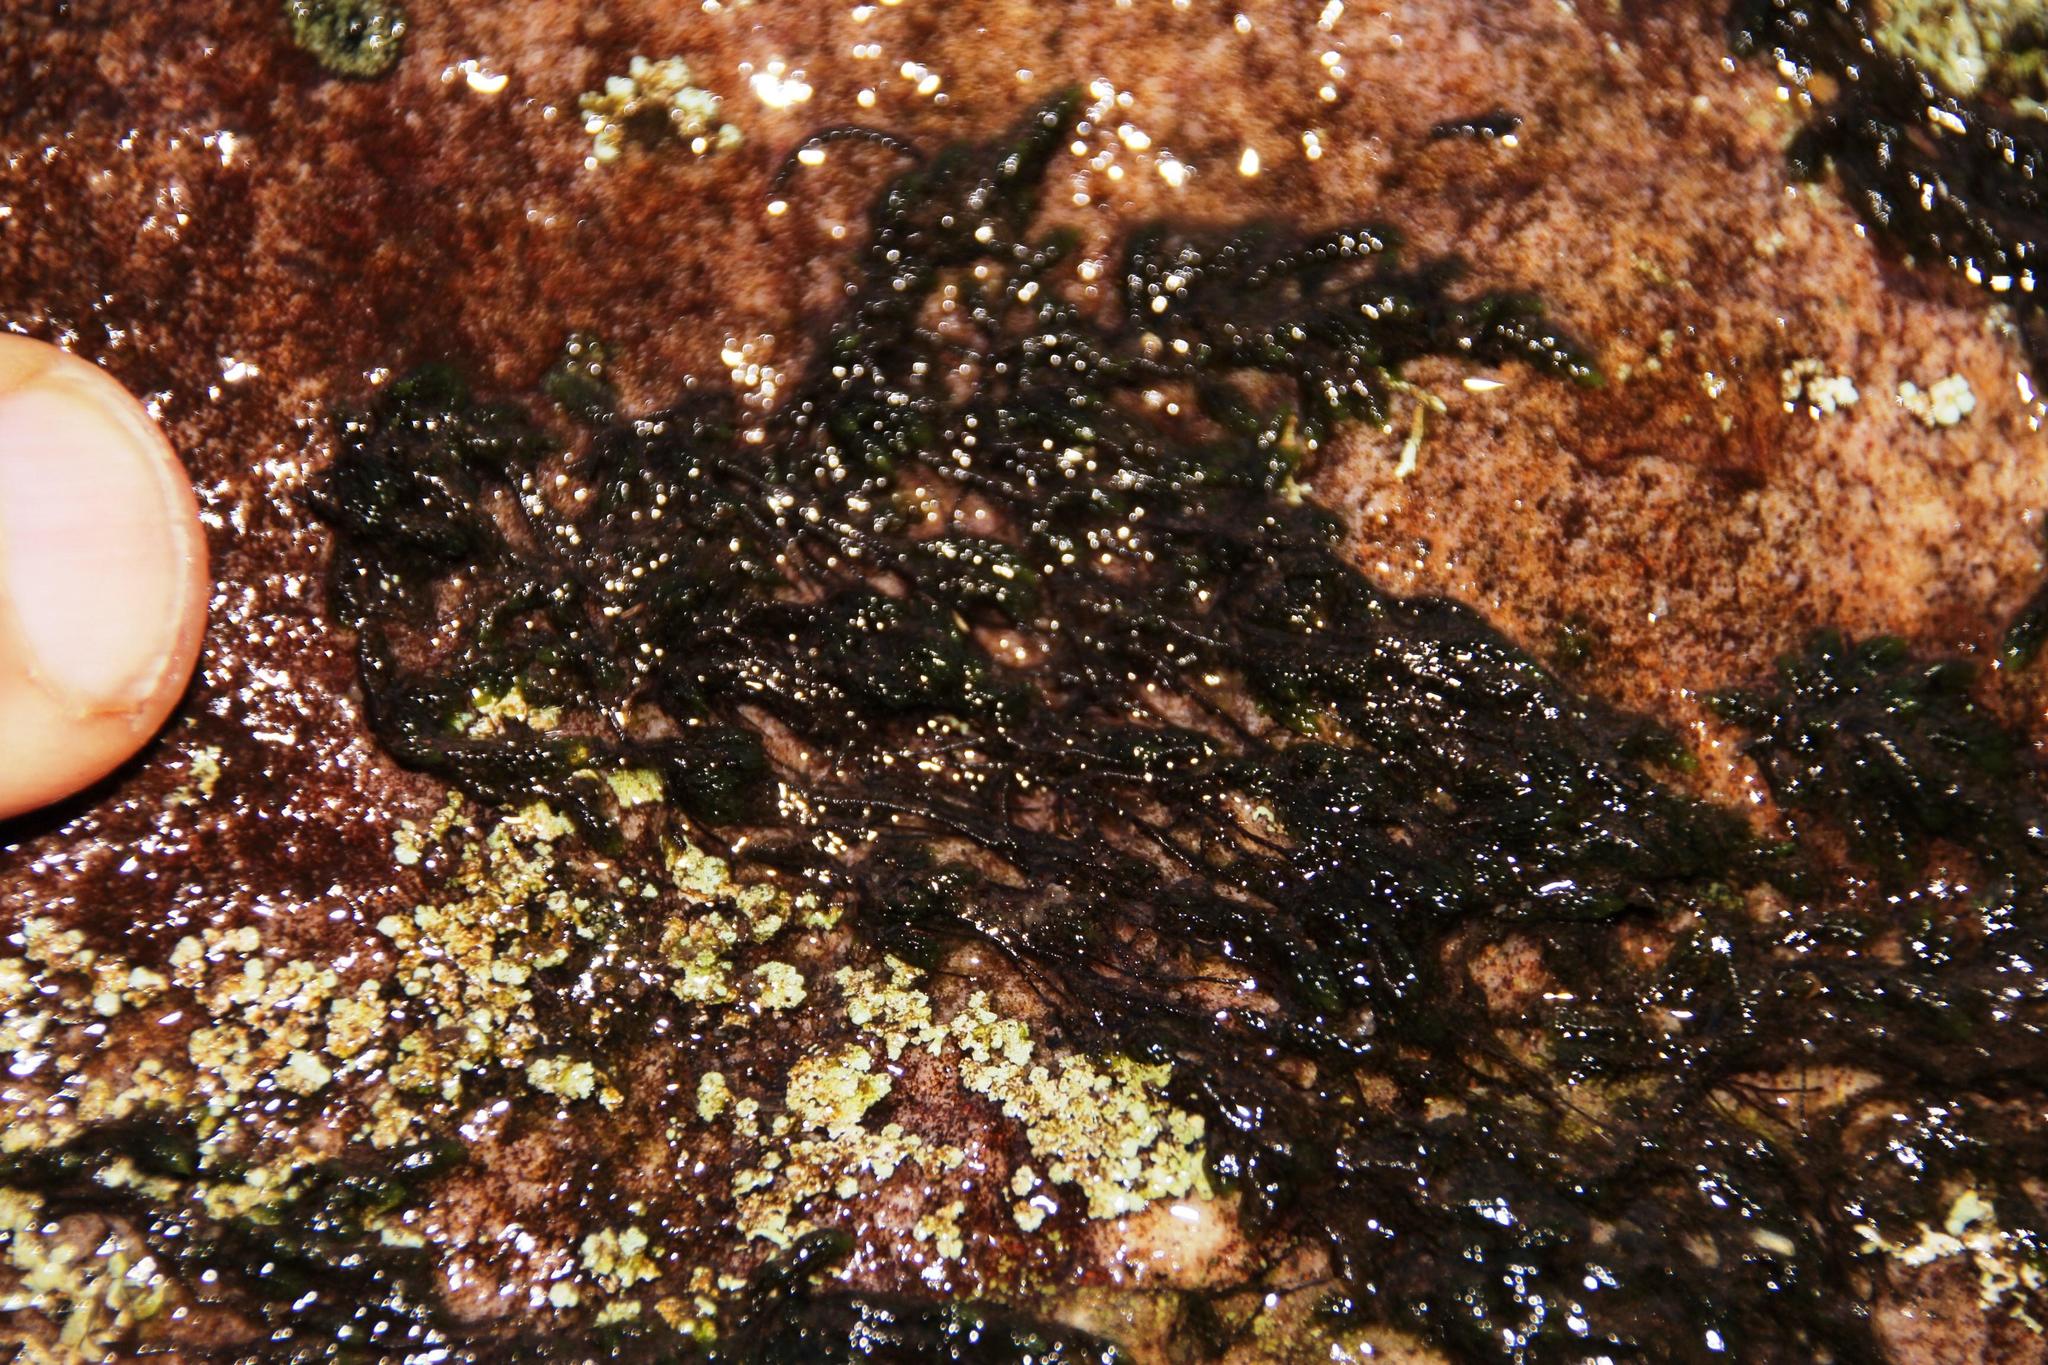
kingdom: Plantae
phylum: Bryophyta
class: Bryopsida
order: Dicranales
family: Dicranaceae
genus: Wardia
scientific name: Wardia hygrometrica
